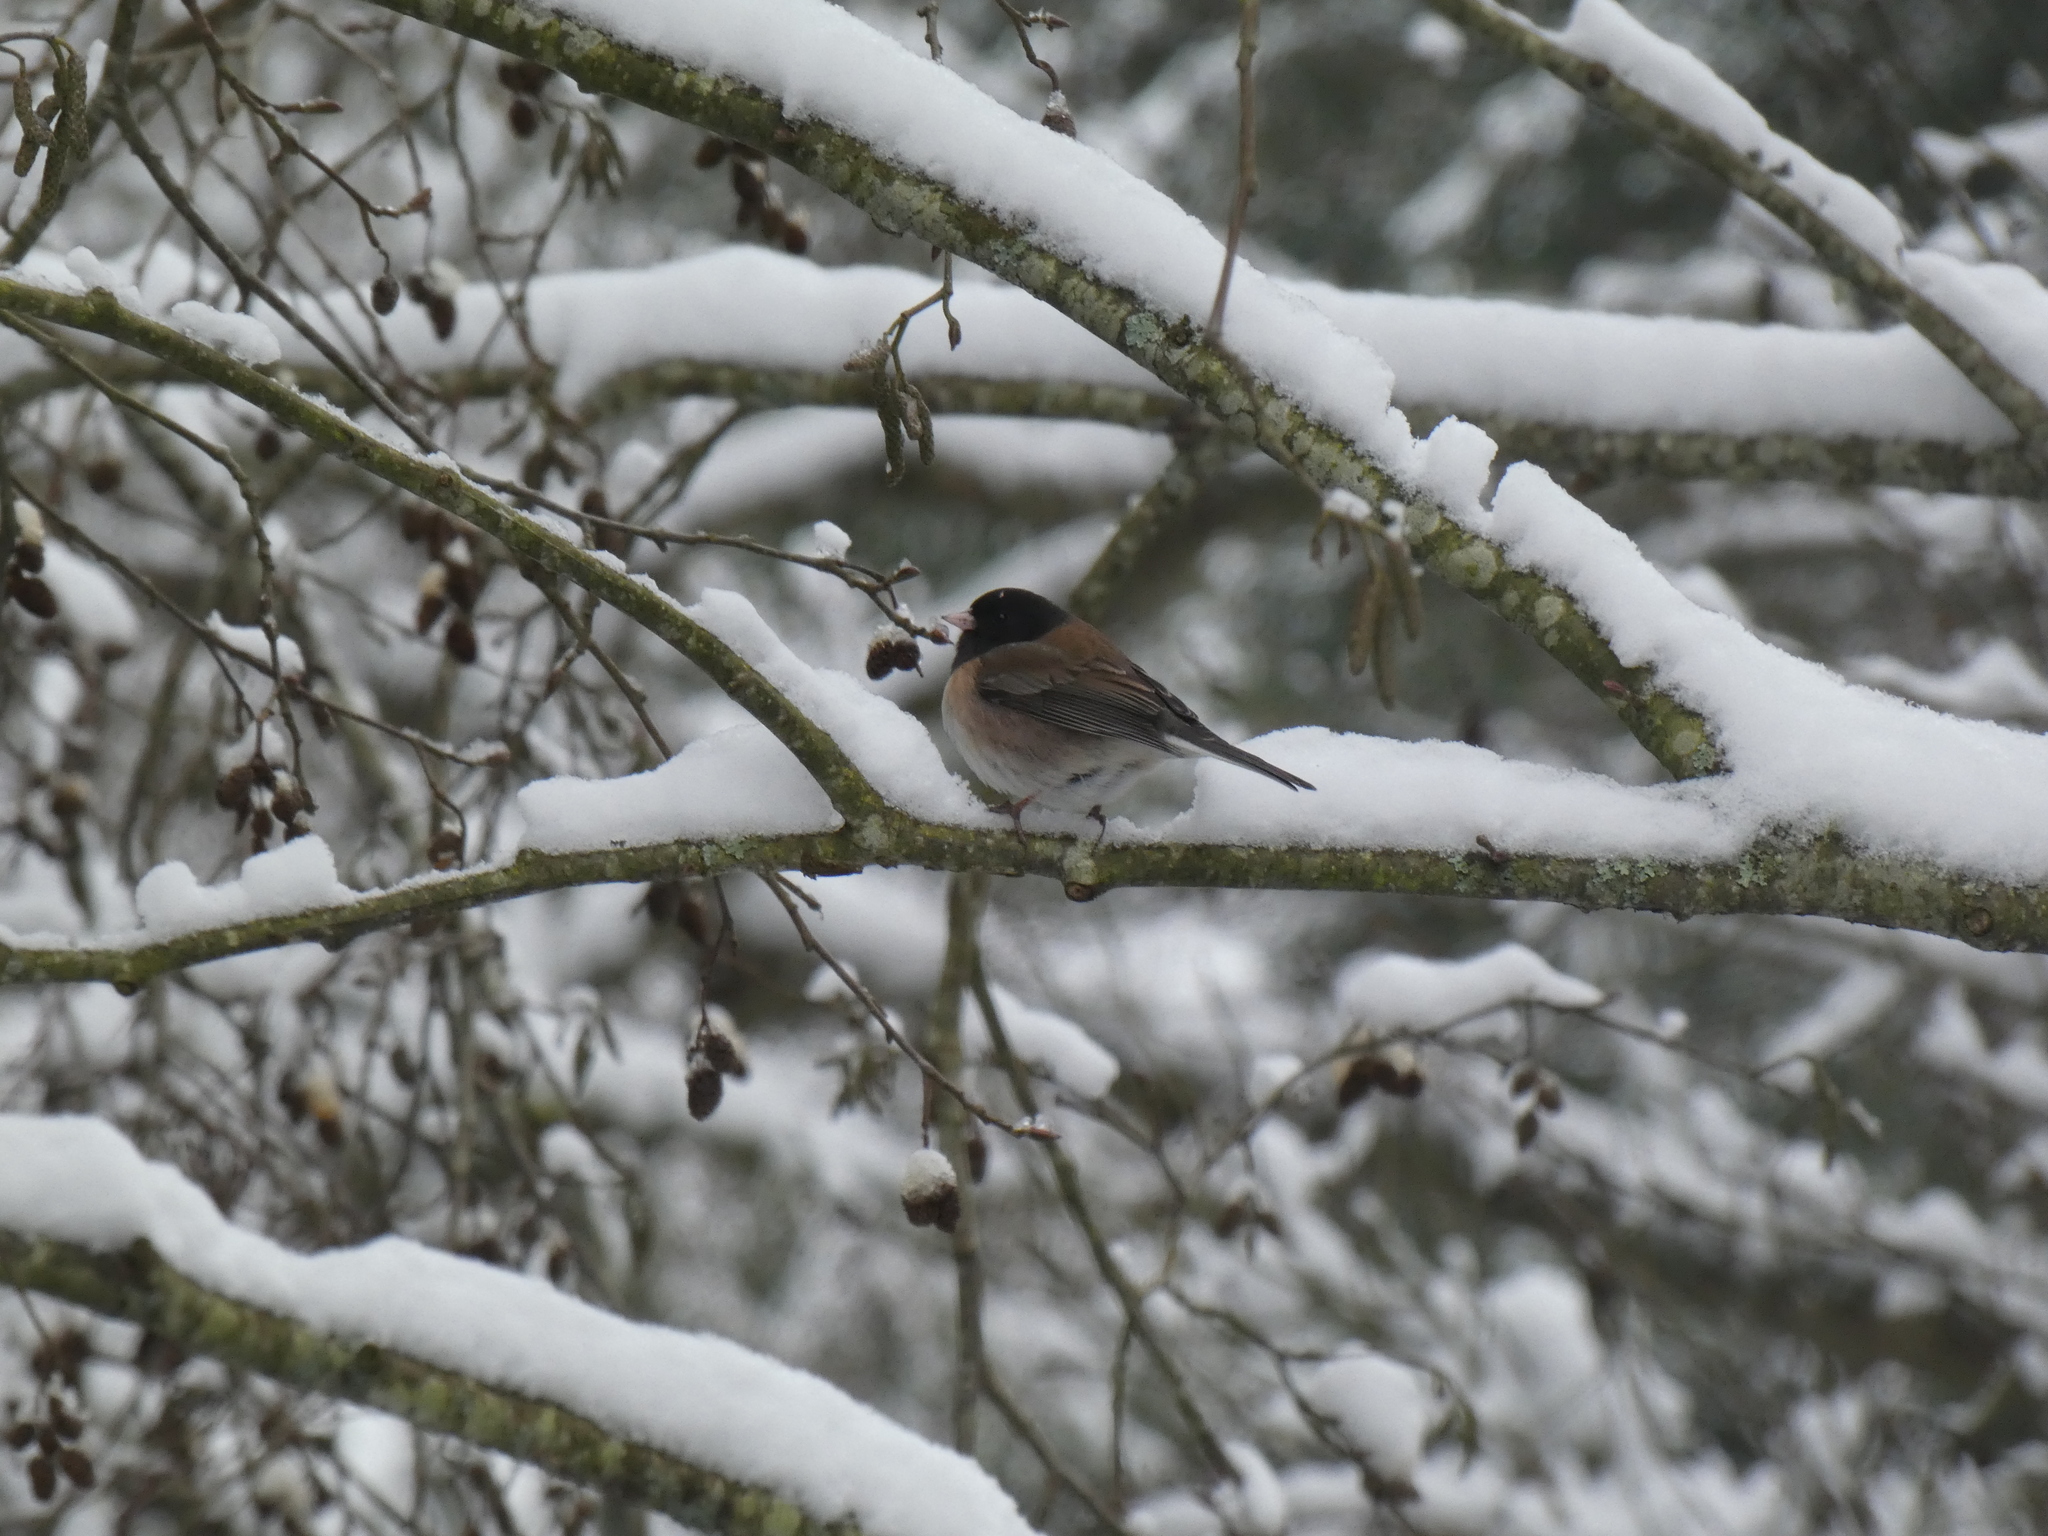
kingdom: Animalia
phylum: Chordata
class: Aves
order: Passeriformes
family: Passerellidae
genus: Junco
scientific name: Junco hyemalis
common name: Dark-eyed junco
